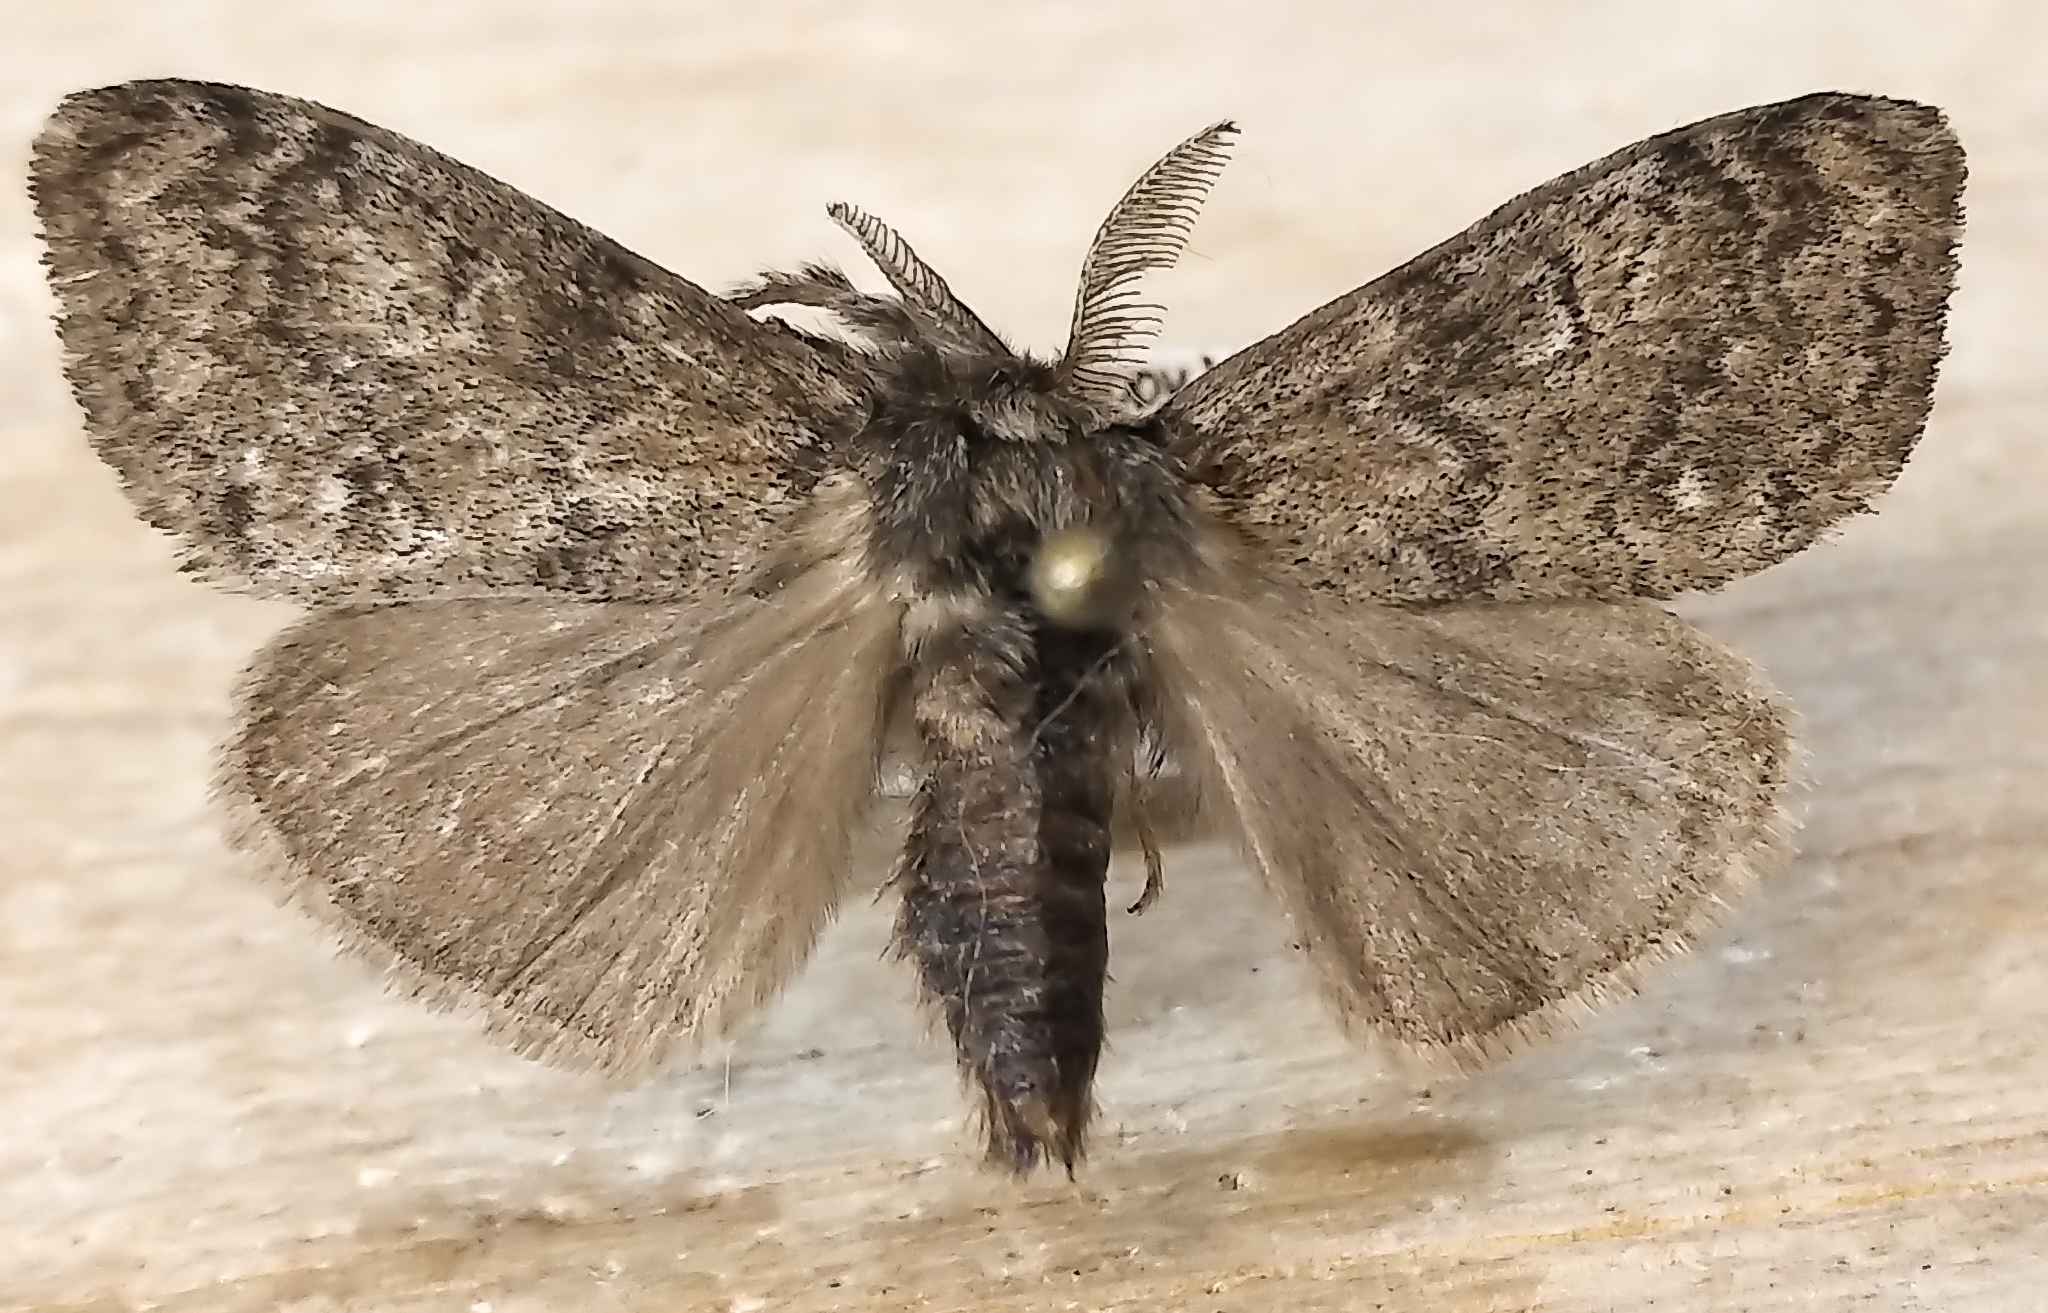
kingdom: Animalia
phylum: Arthropoda
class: Insecta
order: Lepidoptera
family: Erebidae
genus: Dasychira
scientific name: Dasychira plagiata
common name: Northern pine tussock moth
